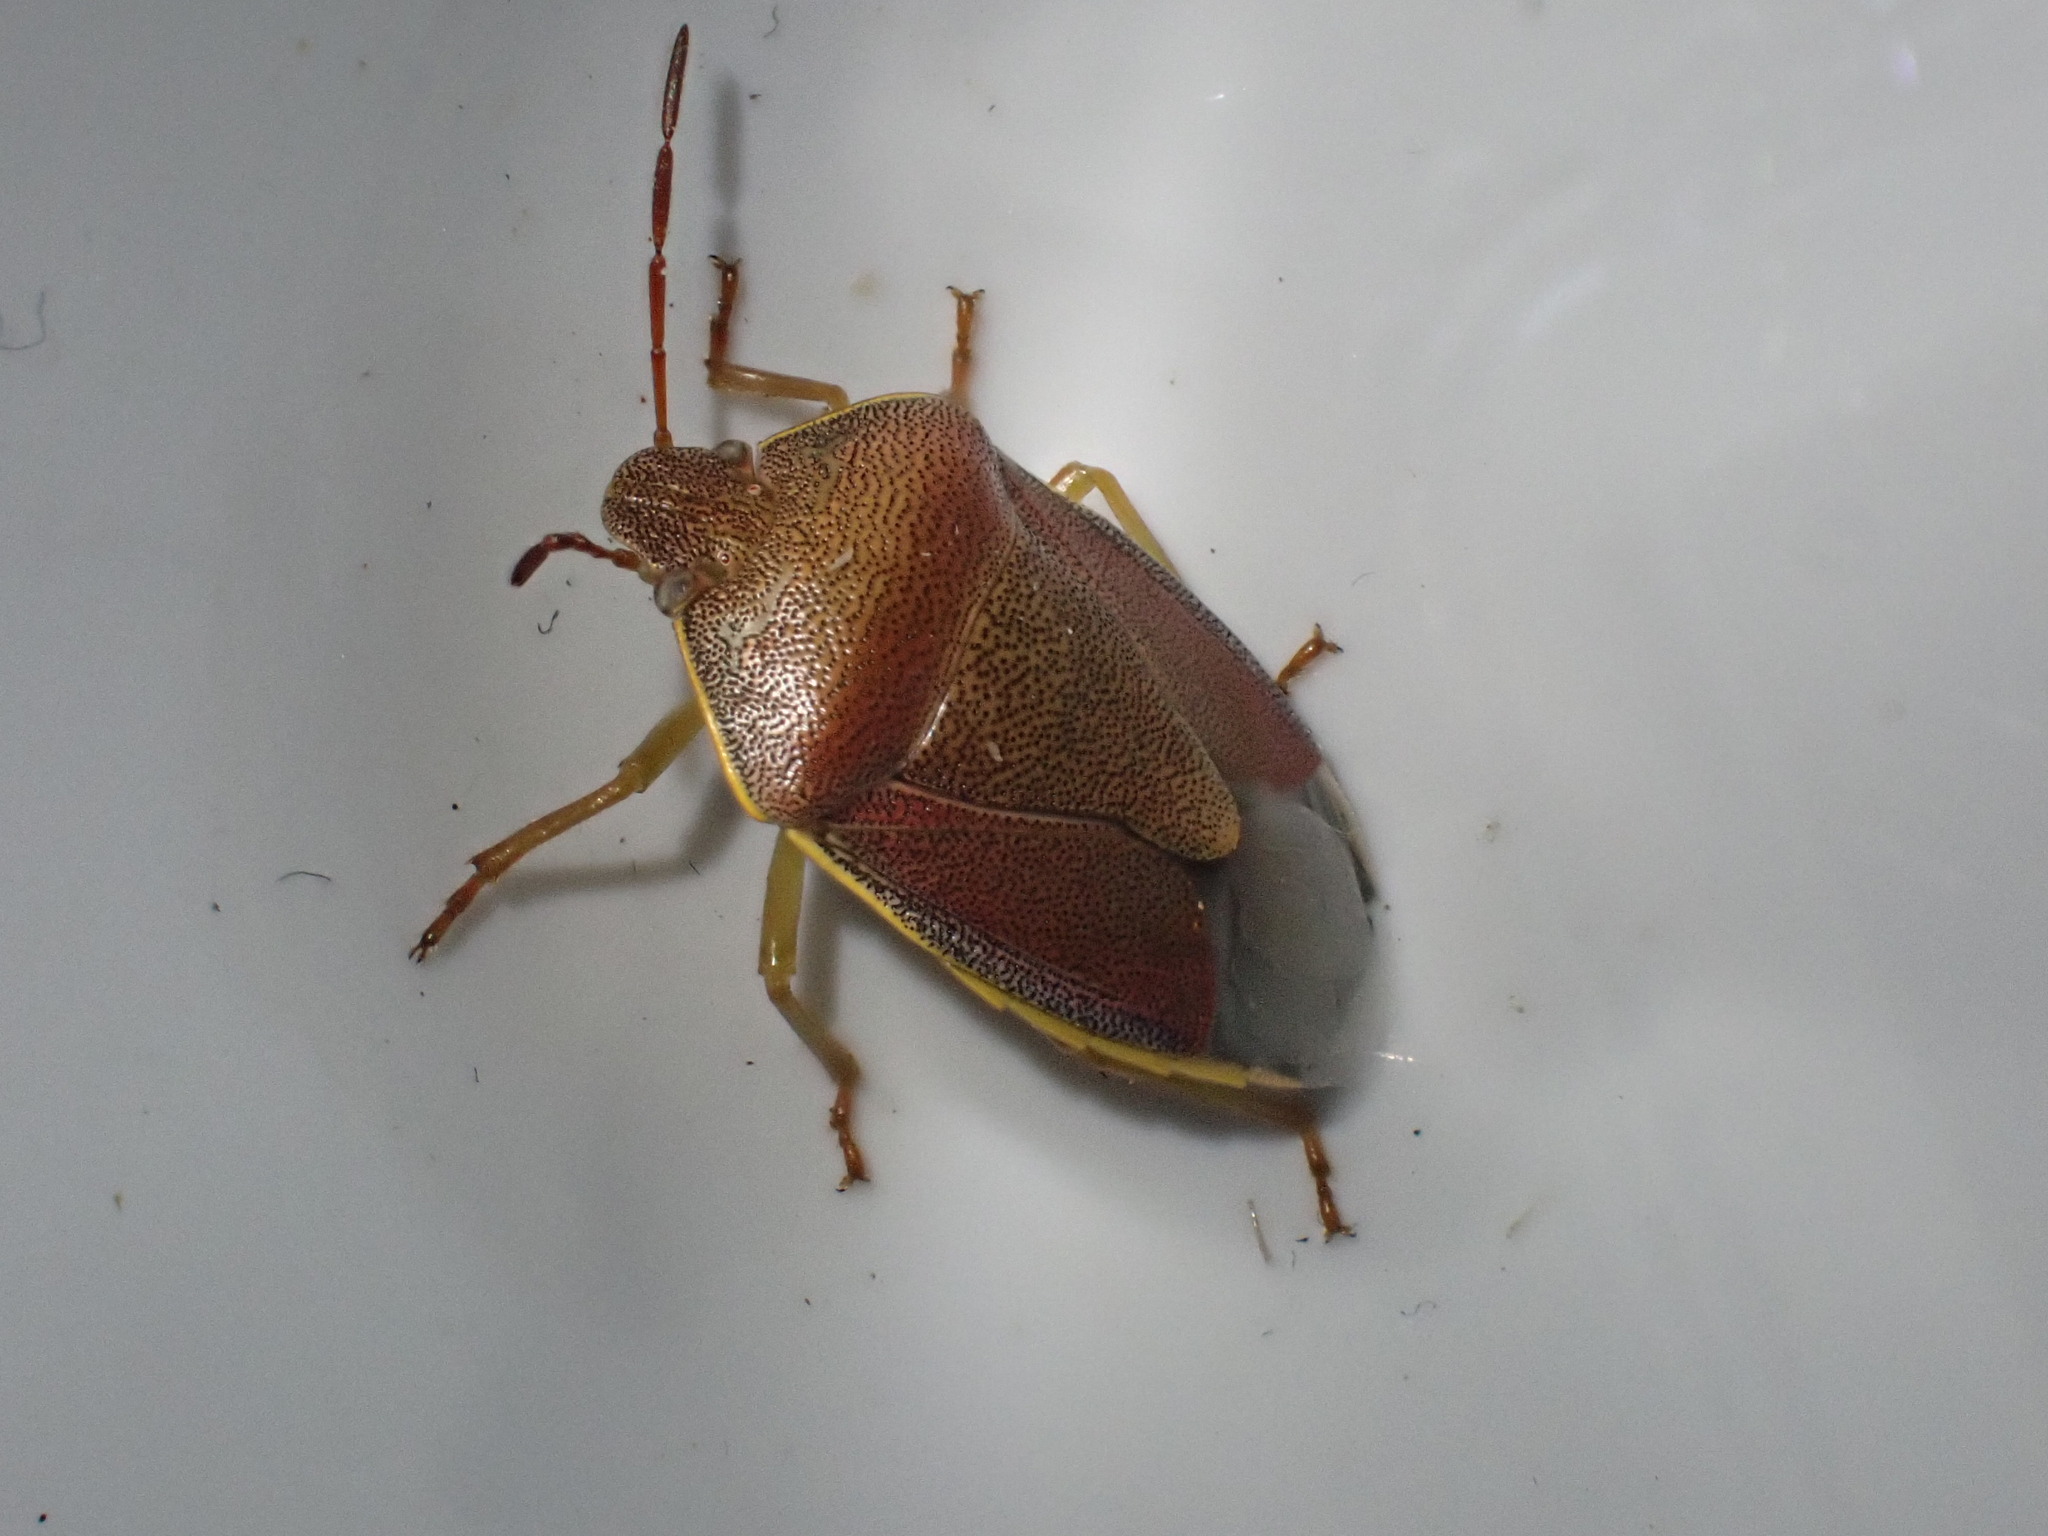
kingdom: Animalia
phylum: Arthropoda
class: Insecta
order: Hemiptera
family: Pentatomidae
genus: Palomena
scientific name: Palomena prasina
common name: Green shieldbug
